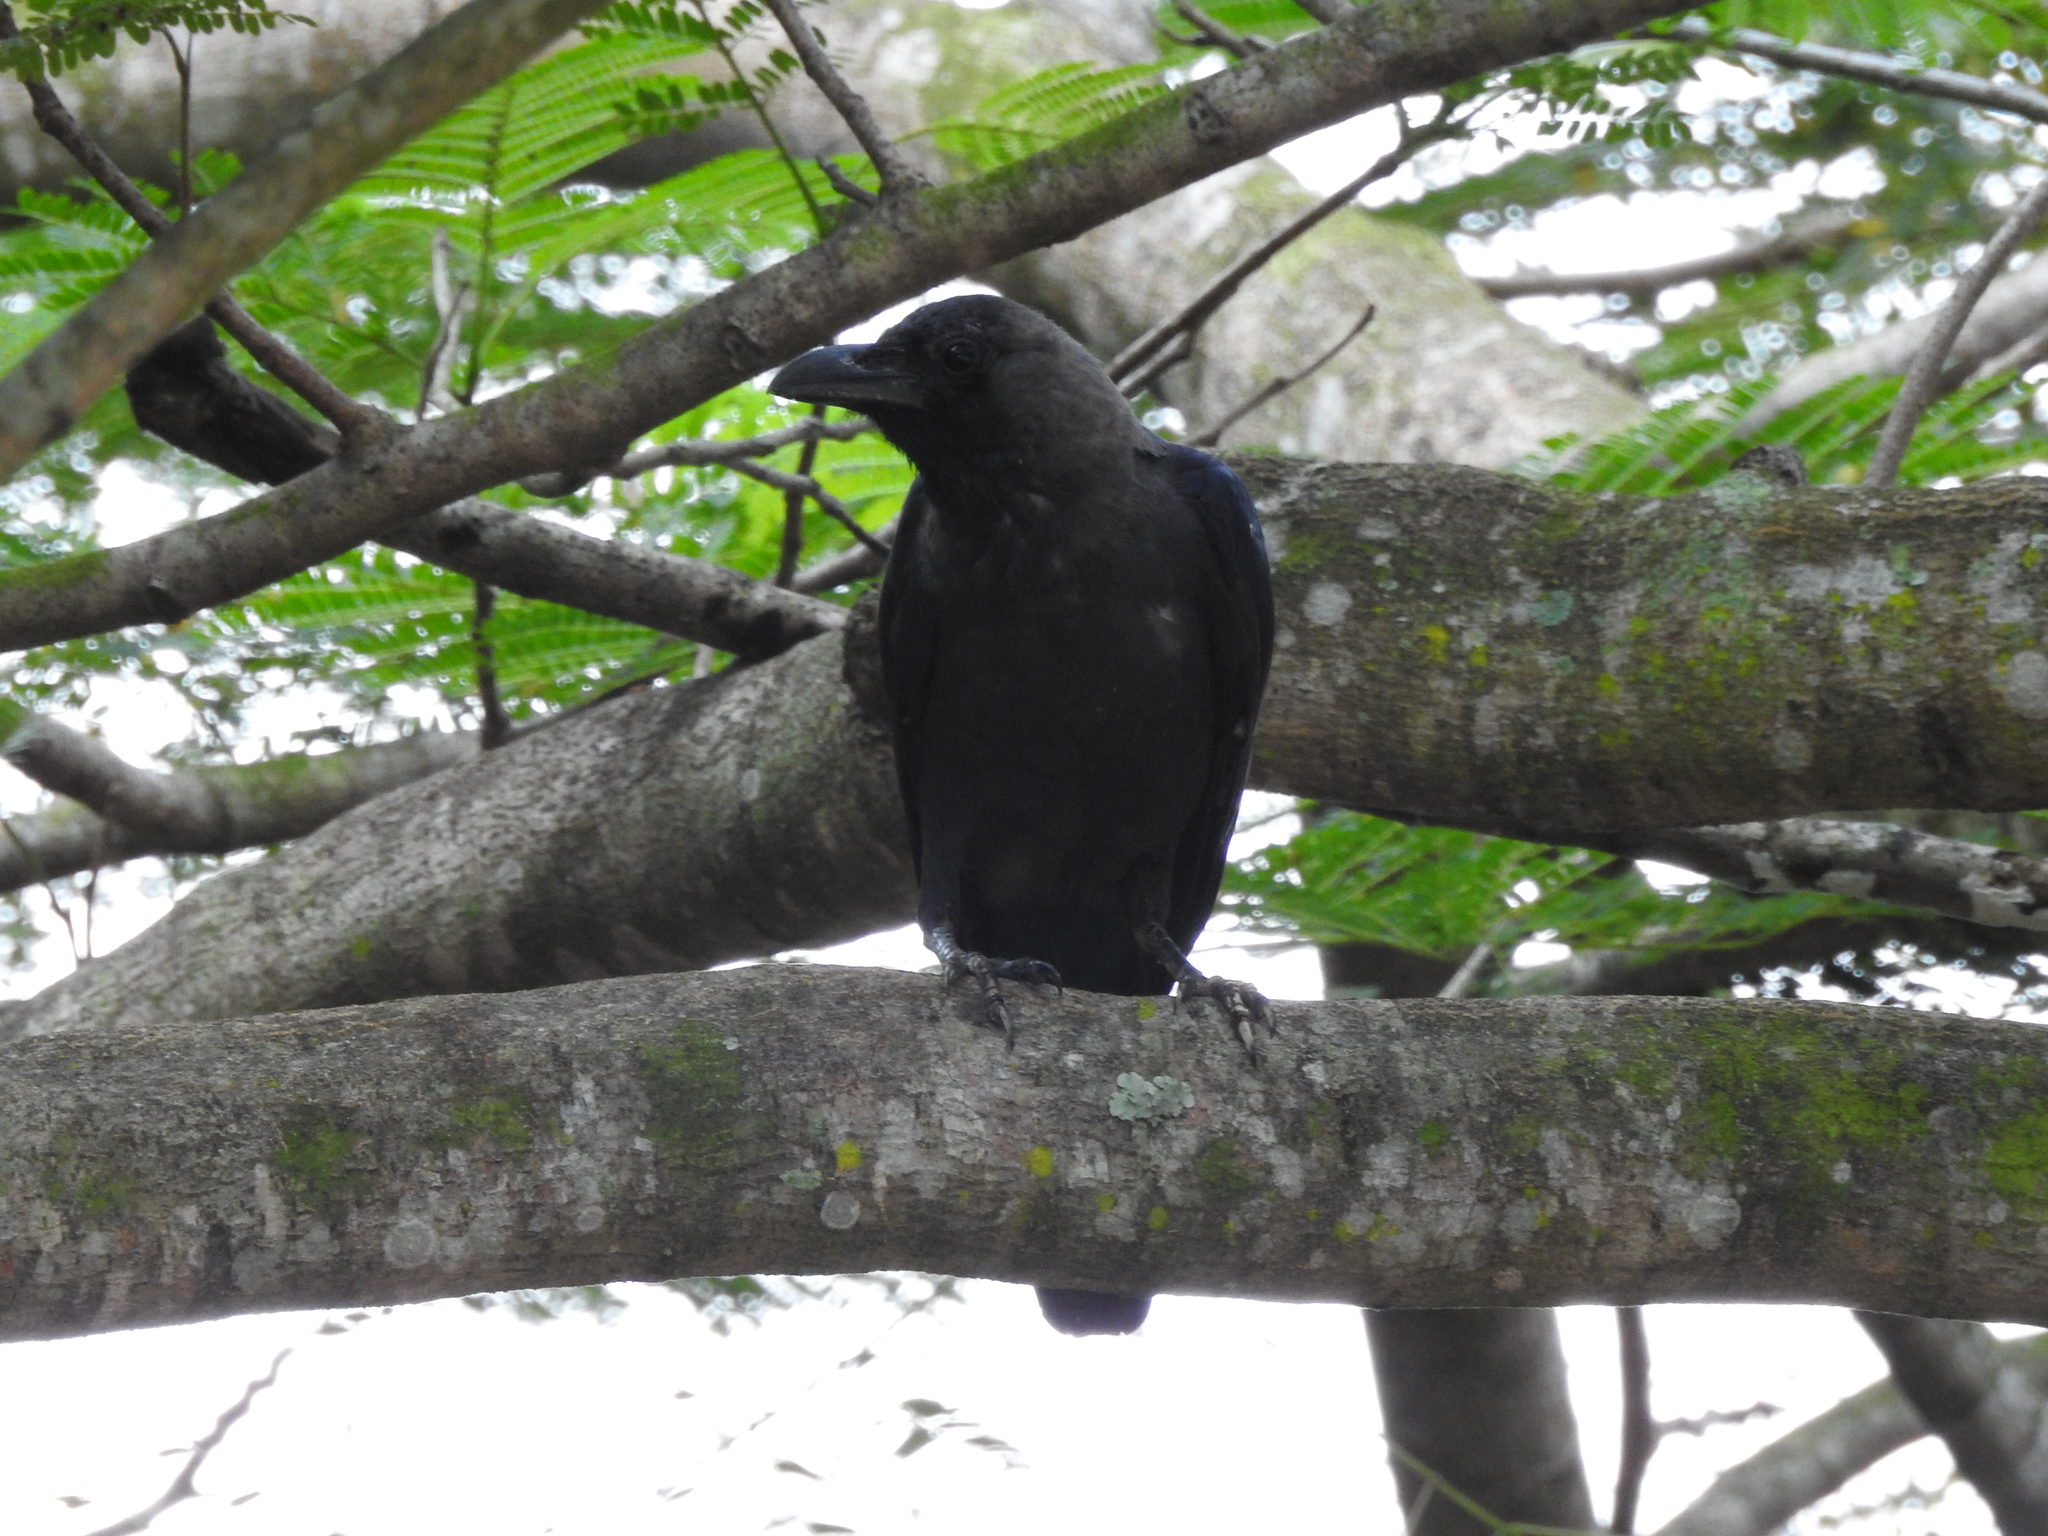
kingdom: Animalia
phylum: Chordata
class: Aves
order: Passeriformes
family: Corvidae
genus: Corvus
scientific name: Corvus splendens
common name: House crow
